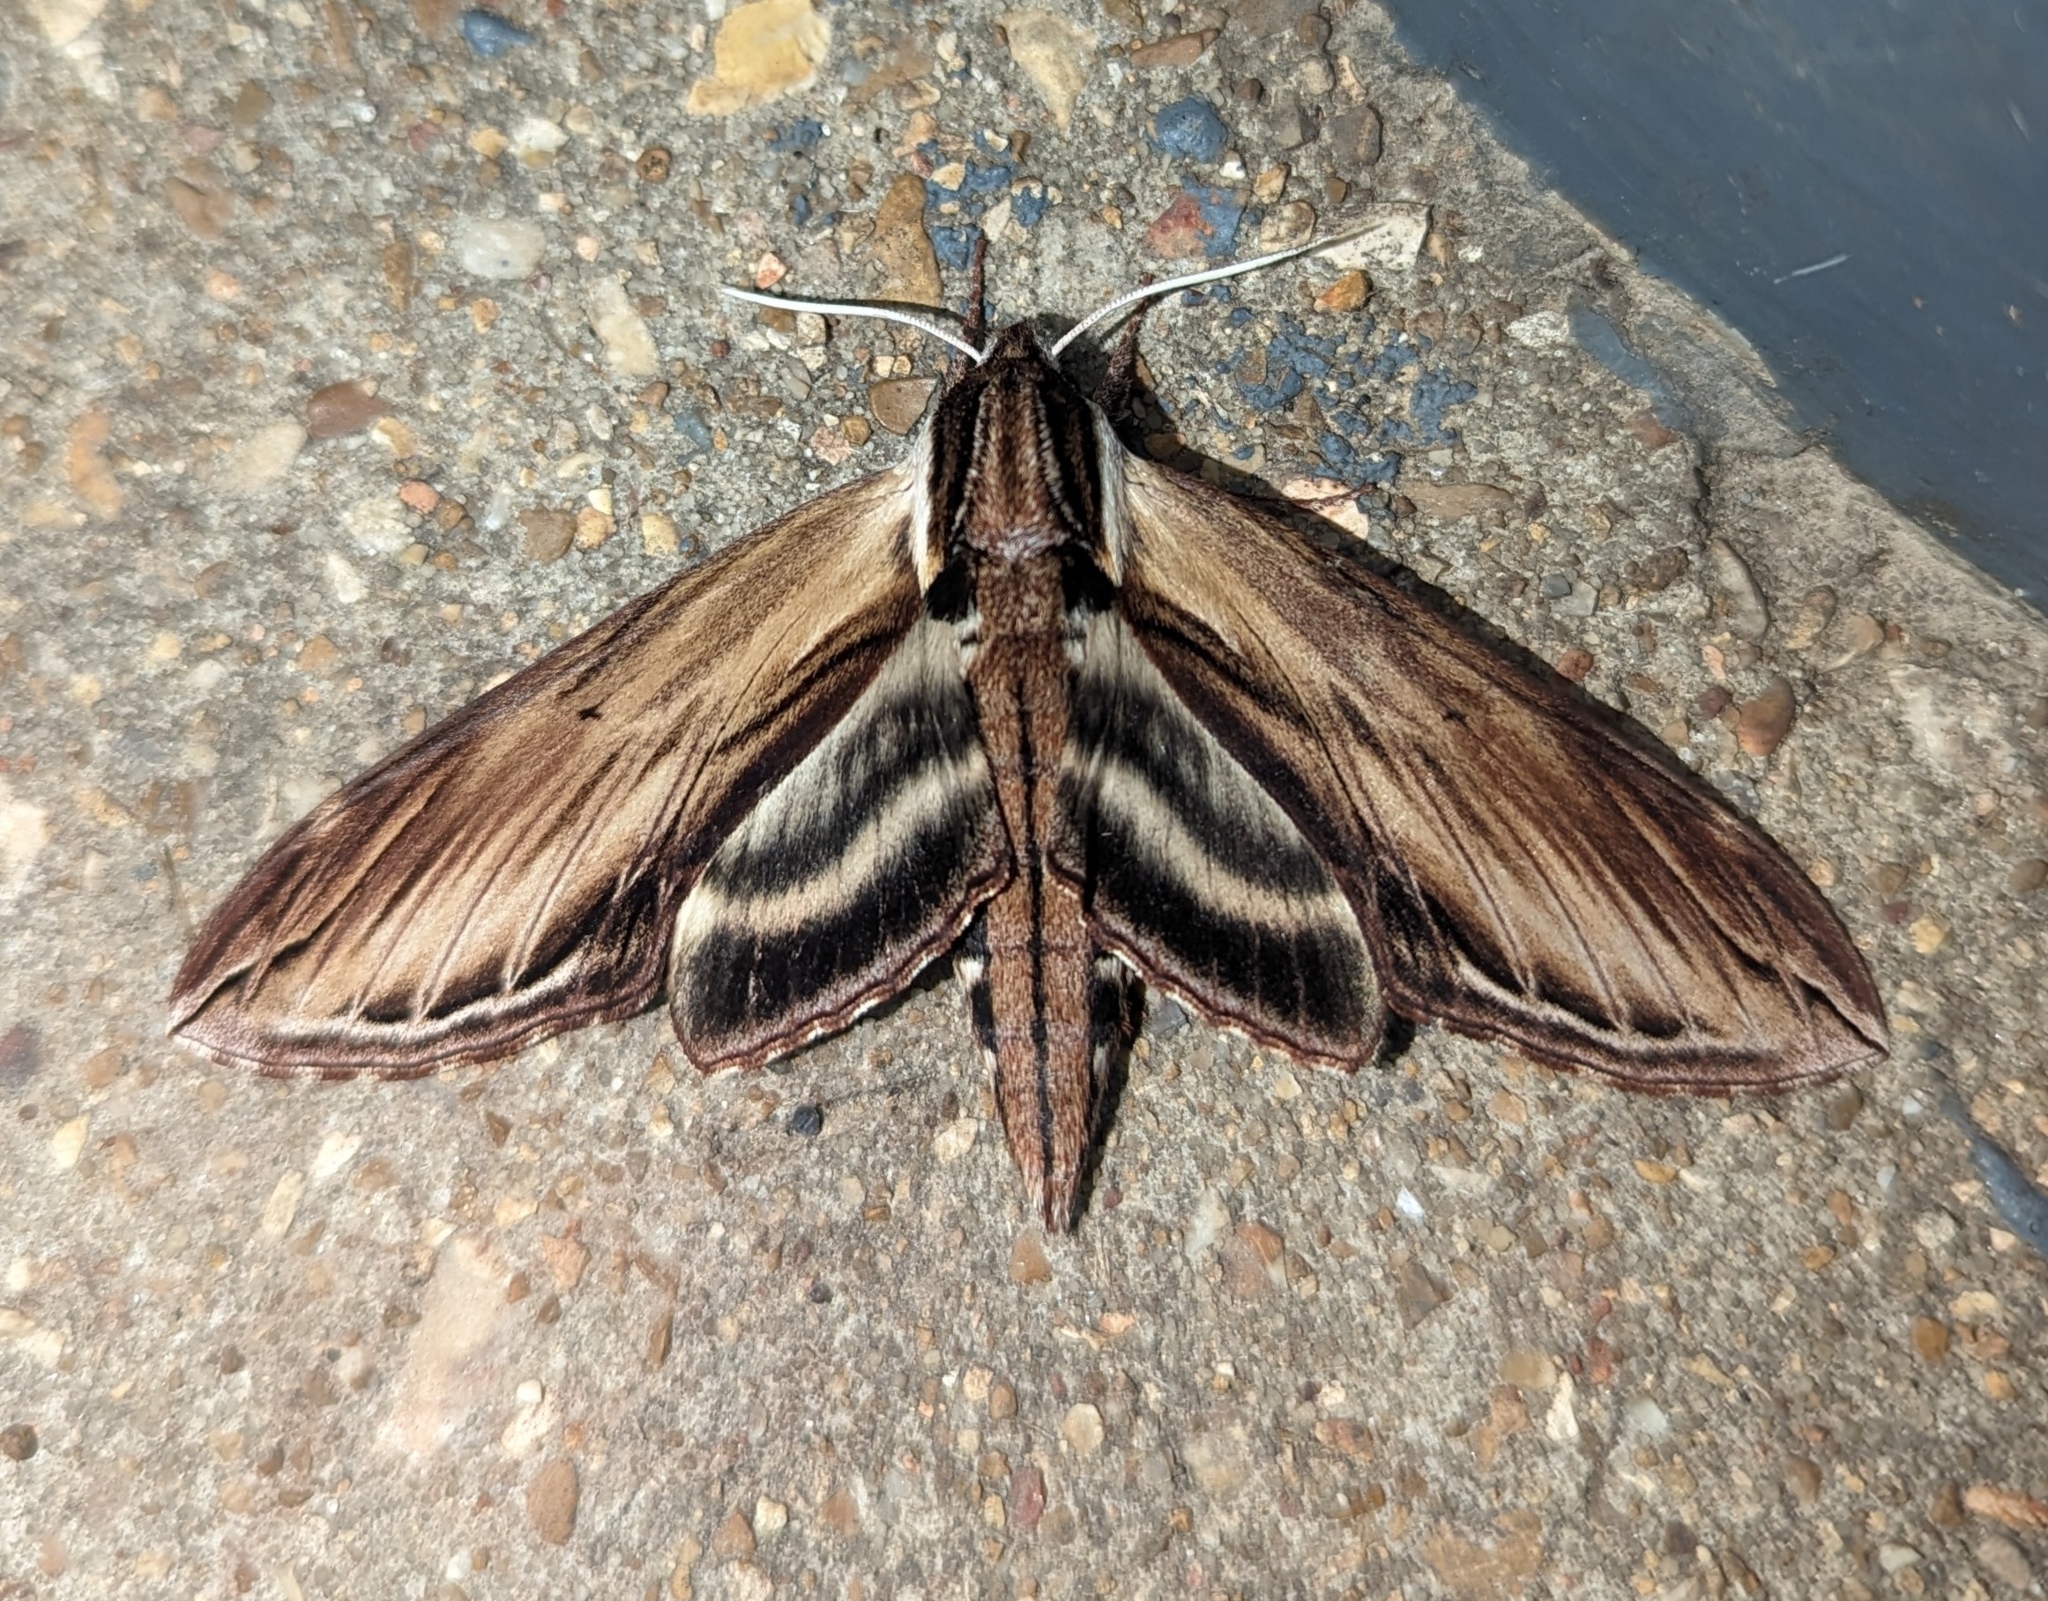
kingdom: Animalia
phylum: Arthropoda
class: Insecta
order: Lepidoptera
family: Sphingidae
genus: Sphinx
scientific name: Sphinx kalmiae
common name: Laurel sphinx
